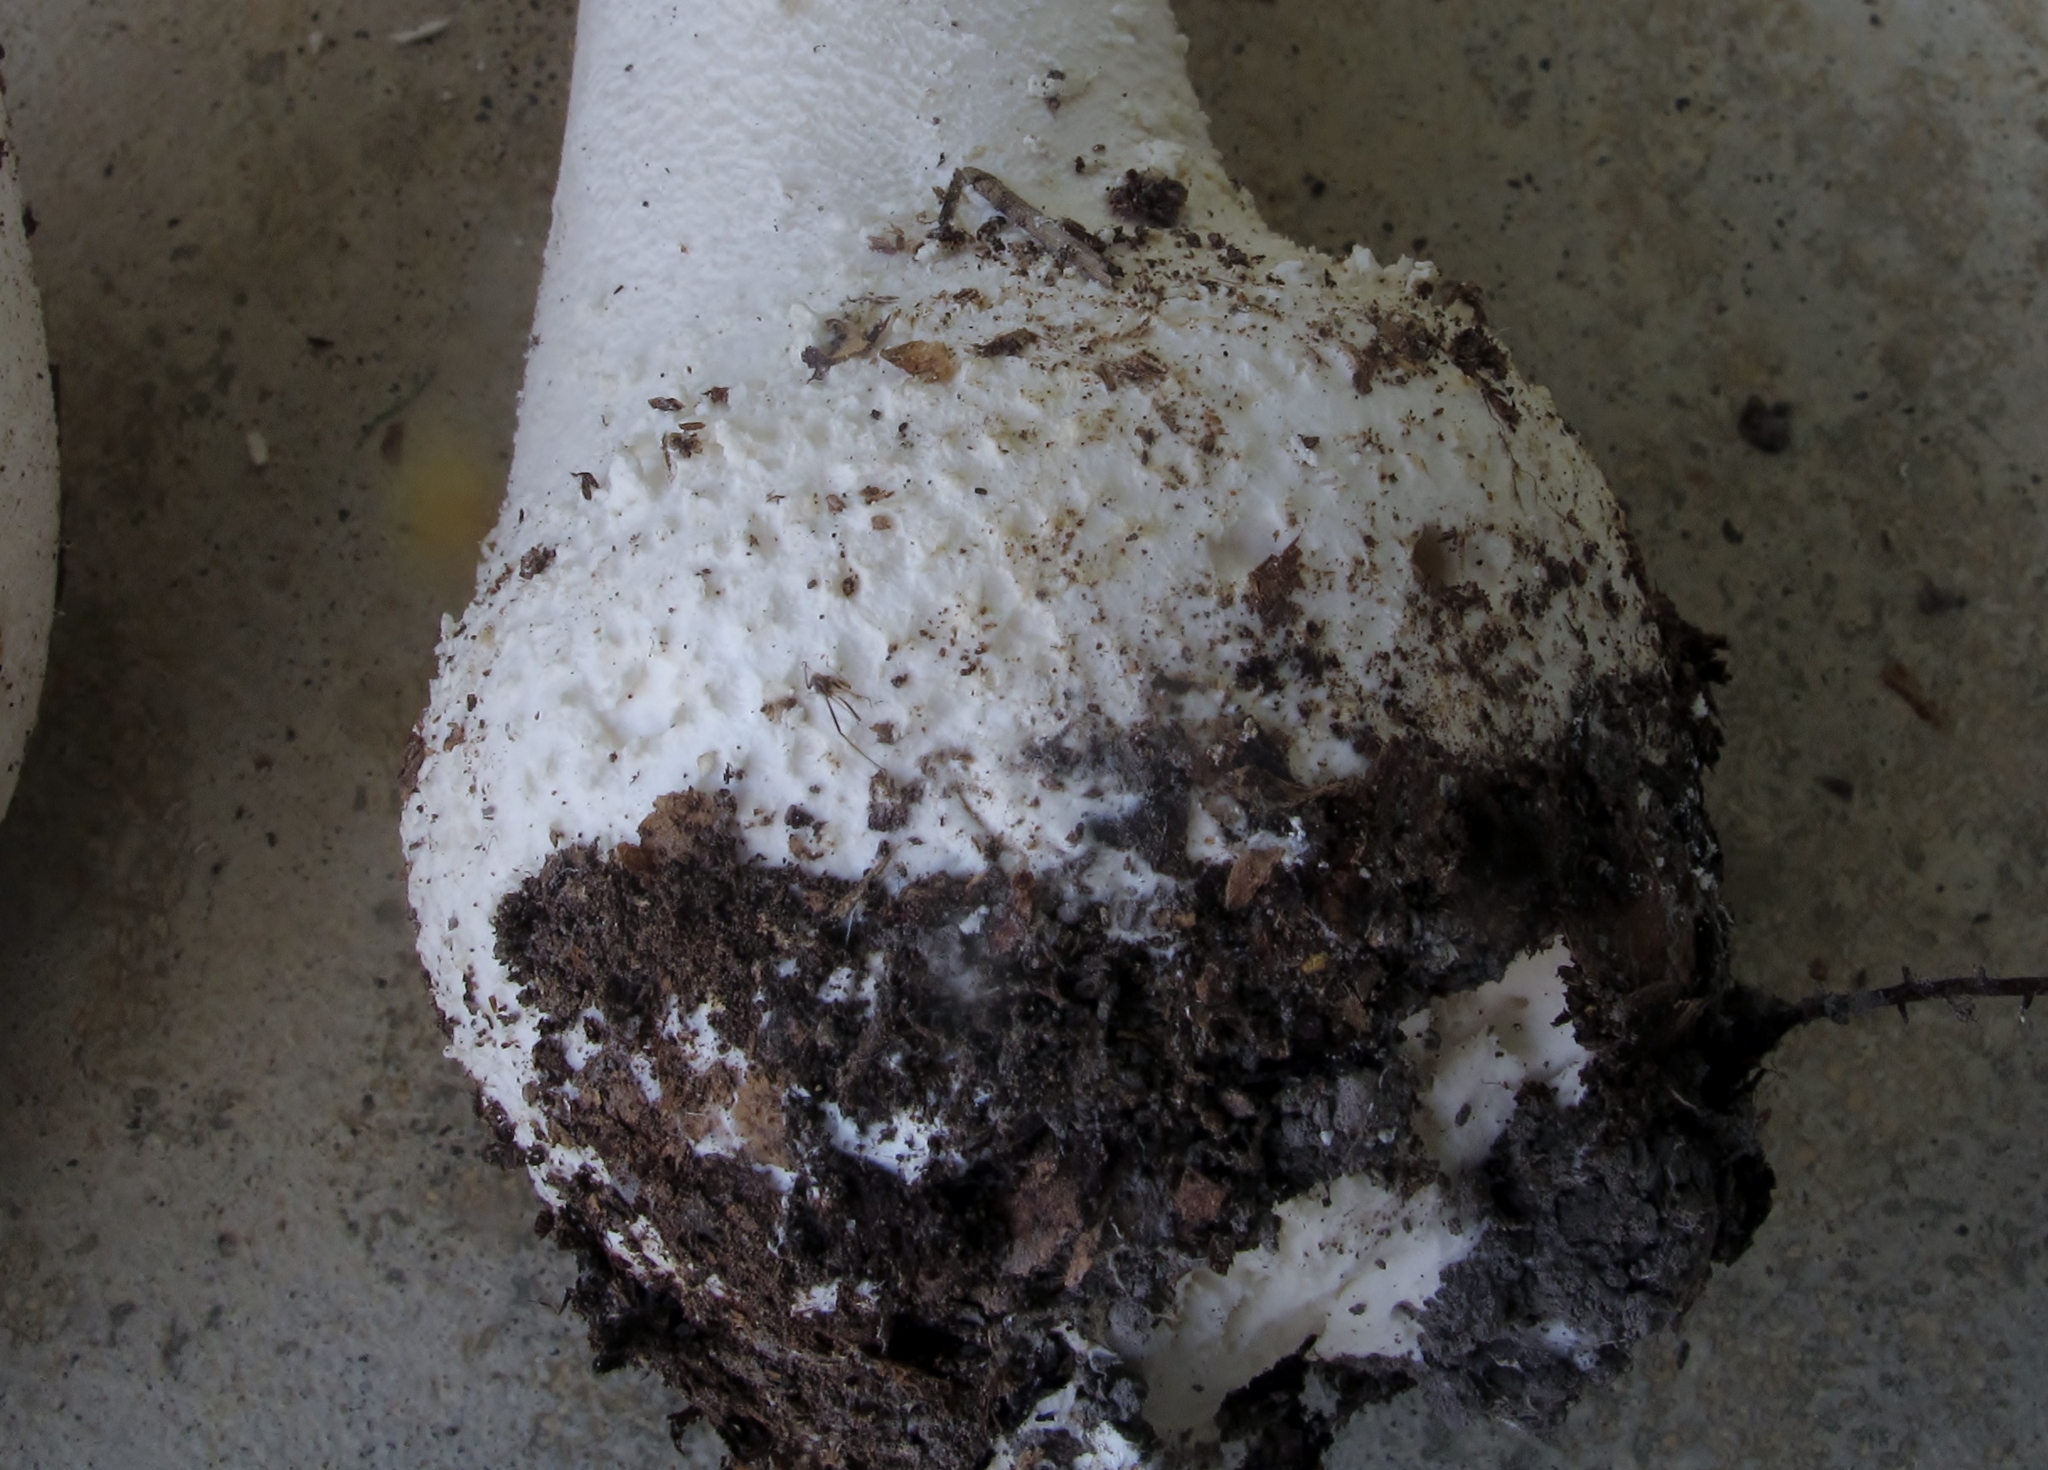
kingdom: Fungi
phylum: Basidiomycota
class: Agaricomycetes
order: Agaricales
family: Amanitaceae
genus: Amanita
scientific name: Amanita polypyramis
